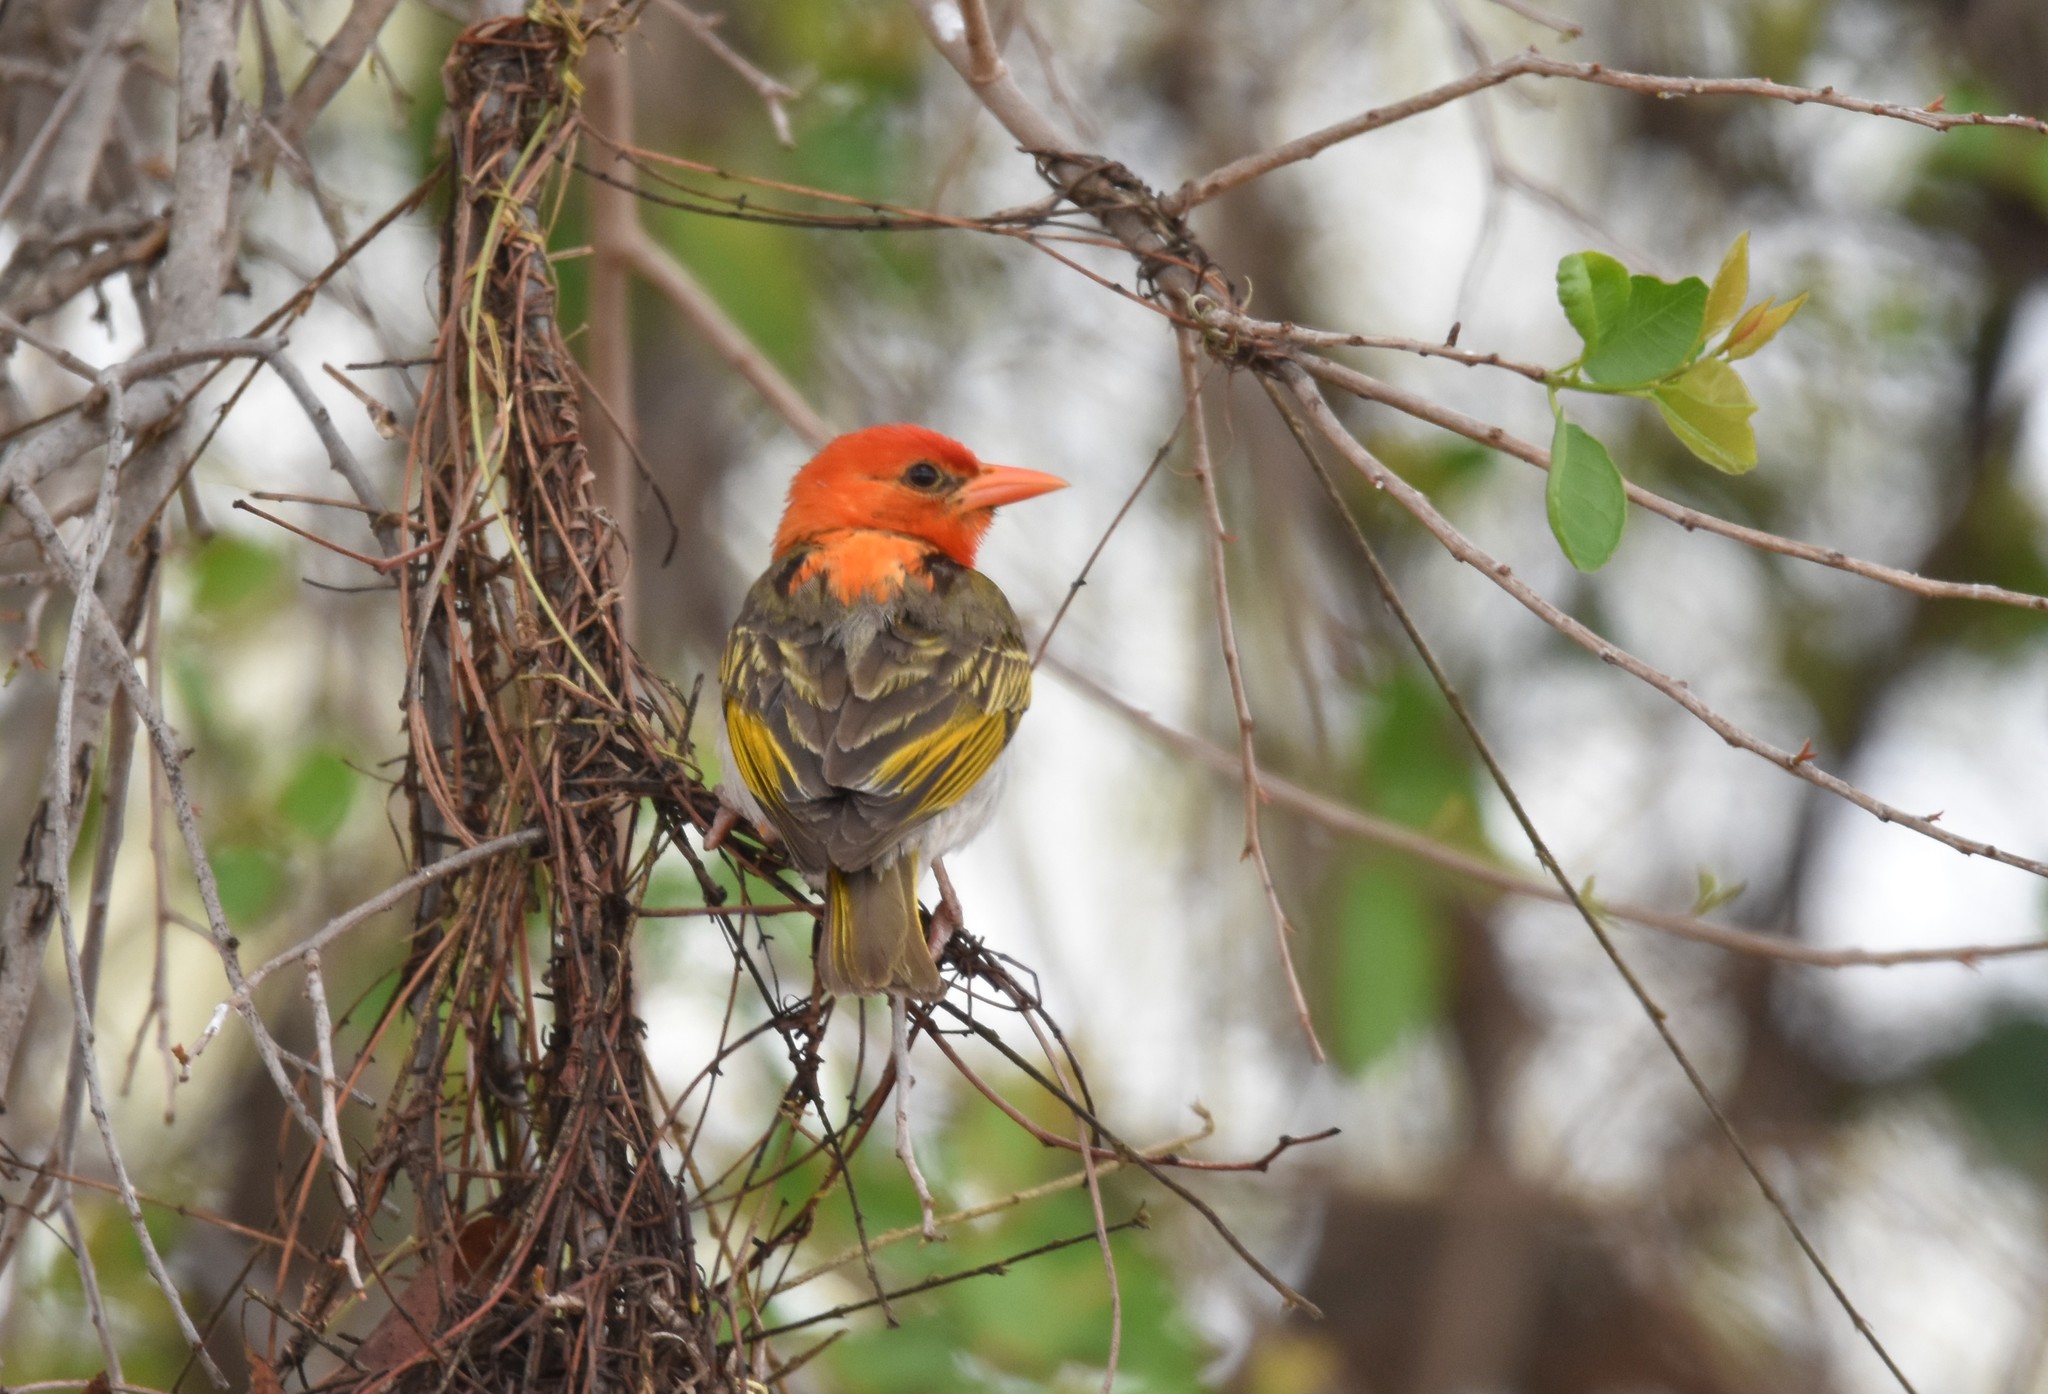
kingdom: Animalia
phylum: Chordata
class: Aves
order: Passeriformes
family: Ploceidae
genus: Anaplectes
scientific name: Anaplectes rubriceps
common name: Red-headed weaver
